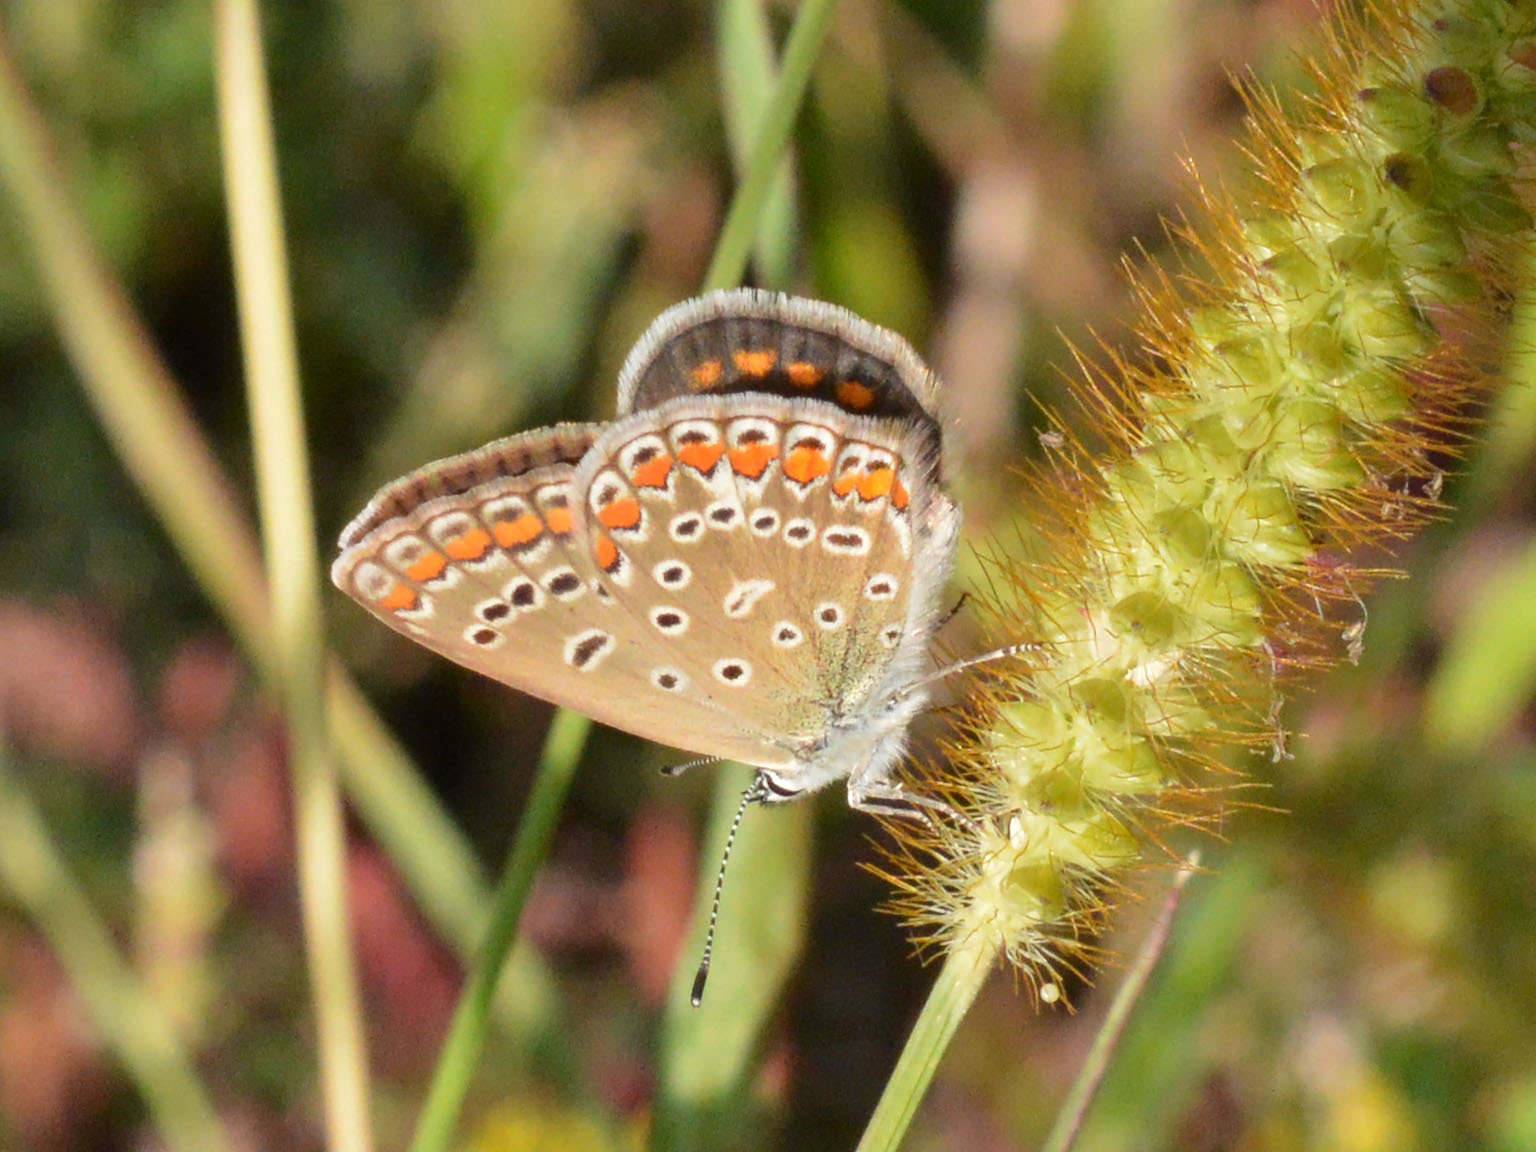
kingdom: Animalia
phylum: Arthropoda
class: Insecta
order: Lepidoptera
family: Lycaenidae
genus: Polyommatus
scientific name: Polyommatus icarus
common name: Common blue
